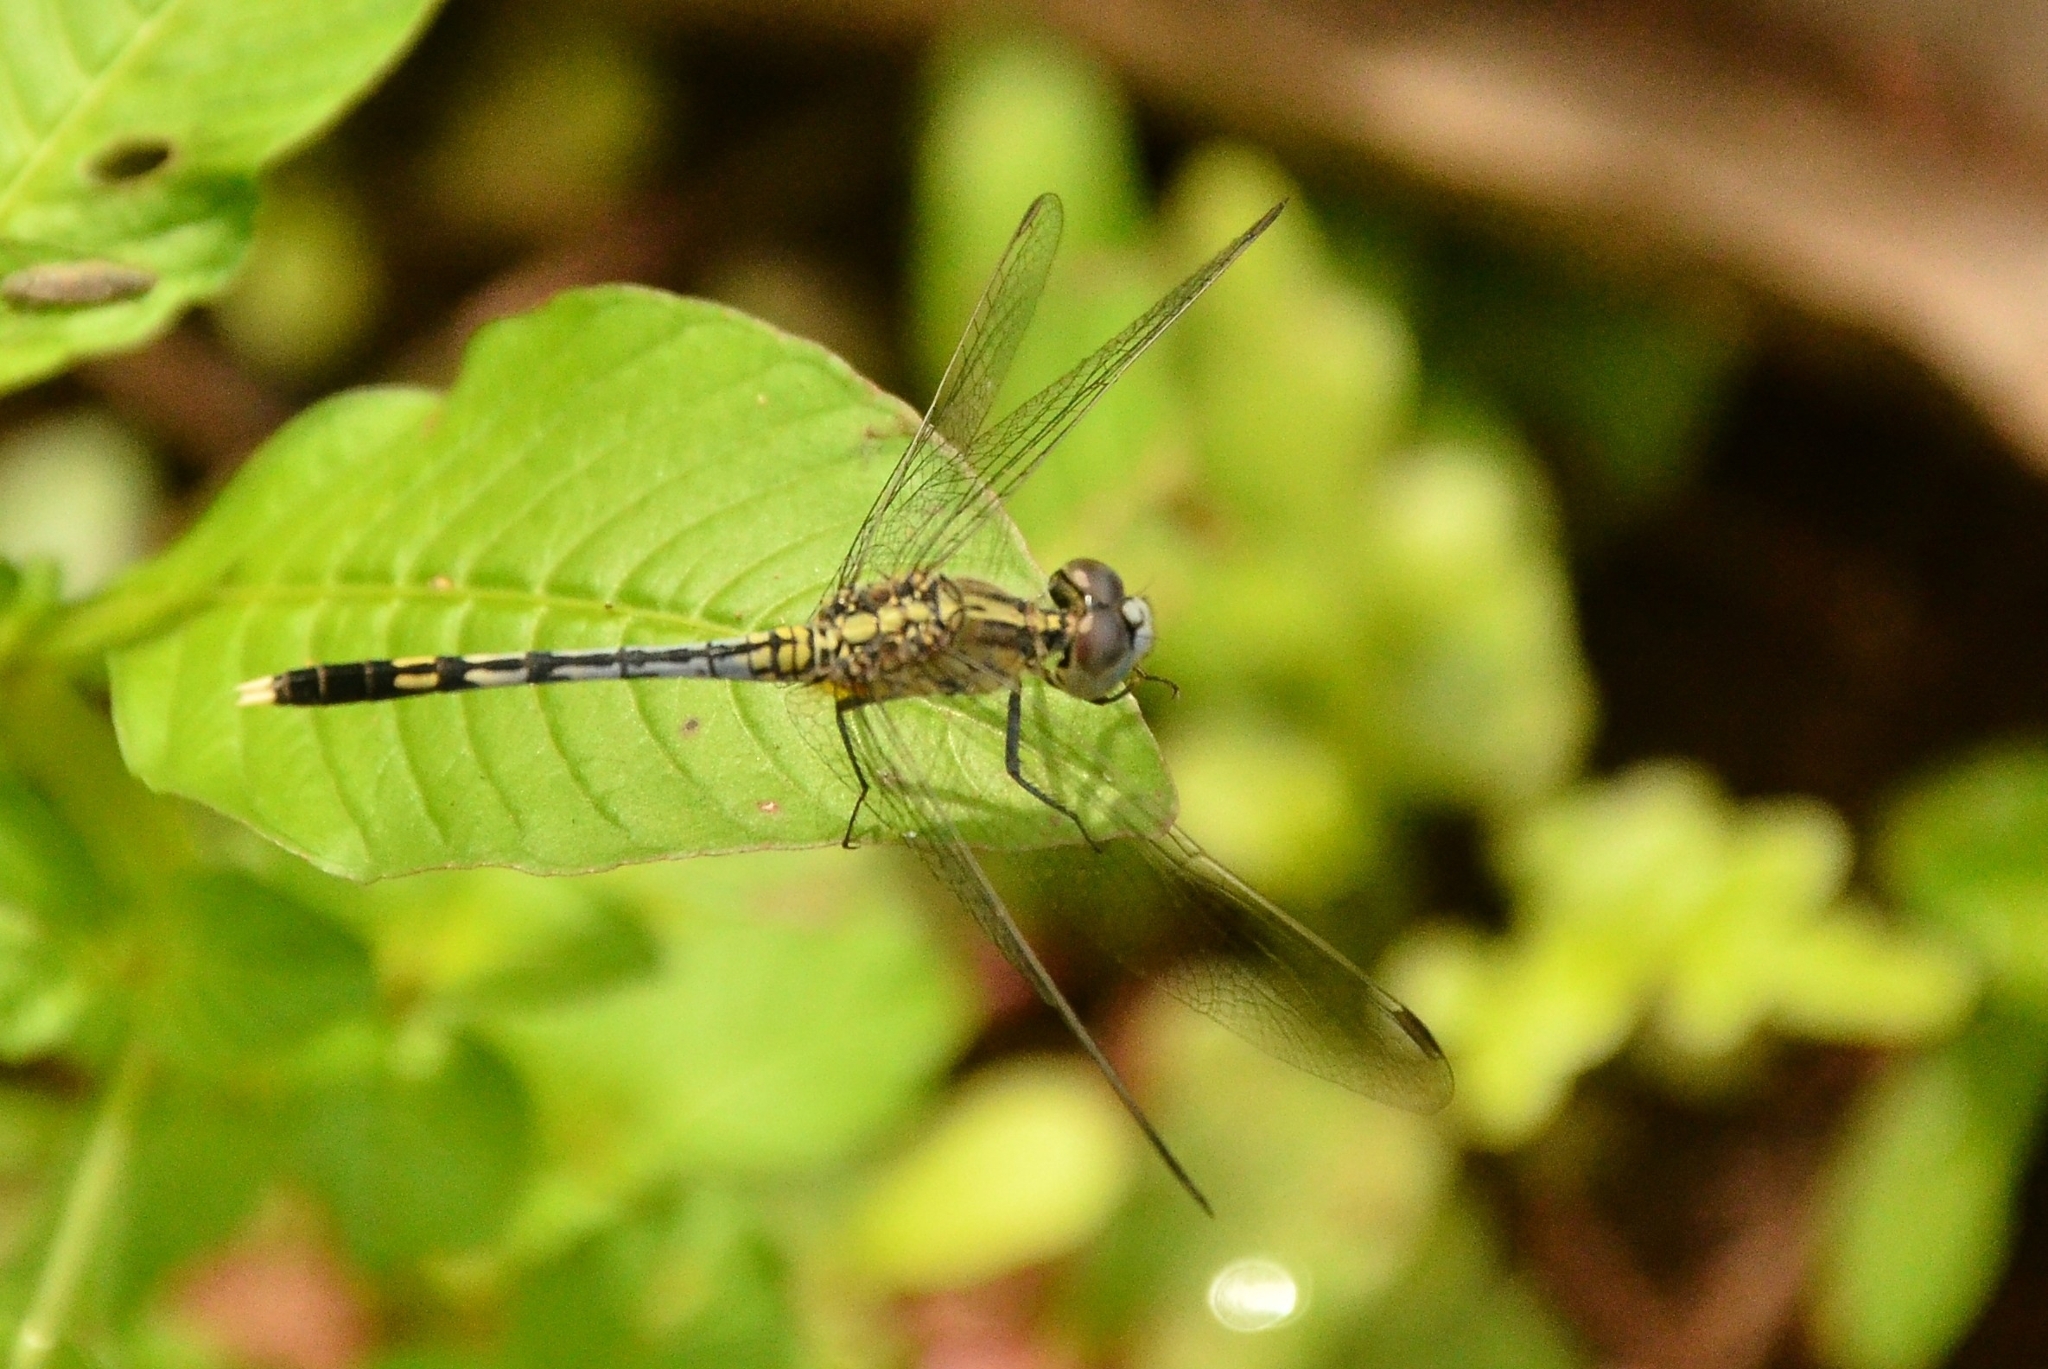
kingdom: Animalia
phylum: Arthropoda
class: Insecta
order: Odonata
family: Libellulidae
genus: Diplacodes
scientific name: Diplacodes trivialis
